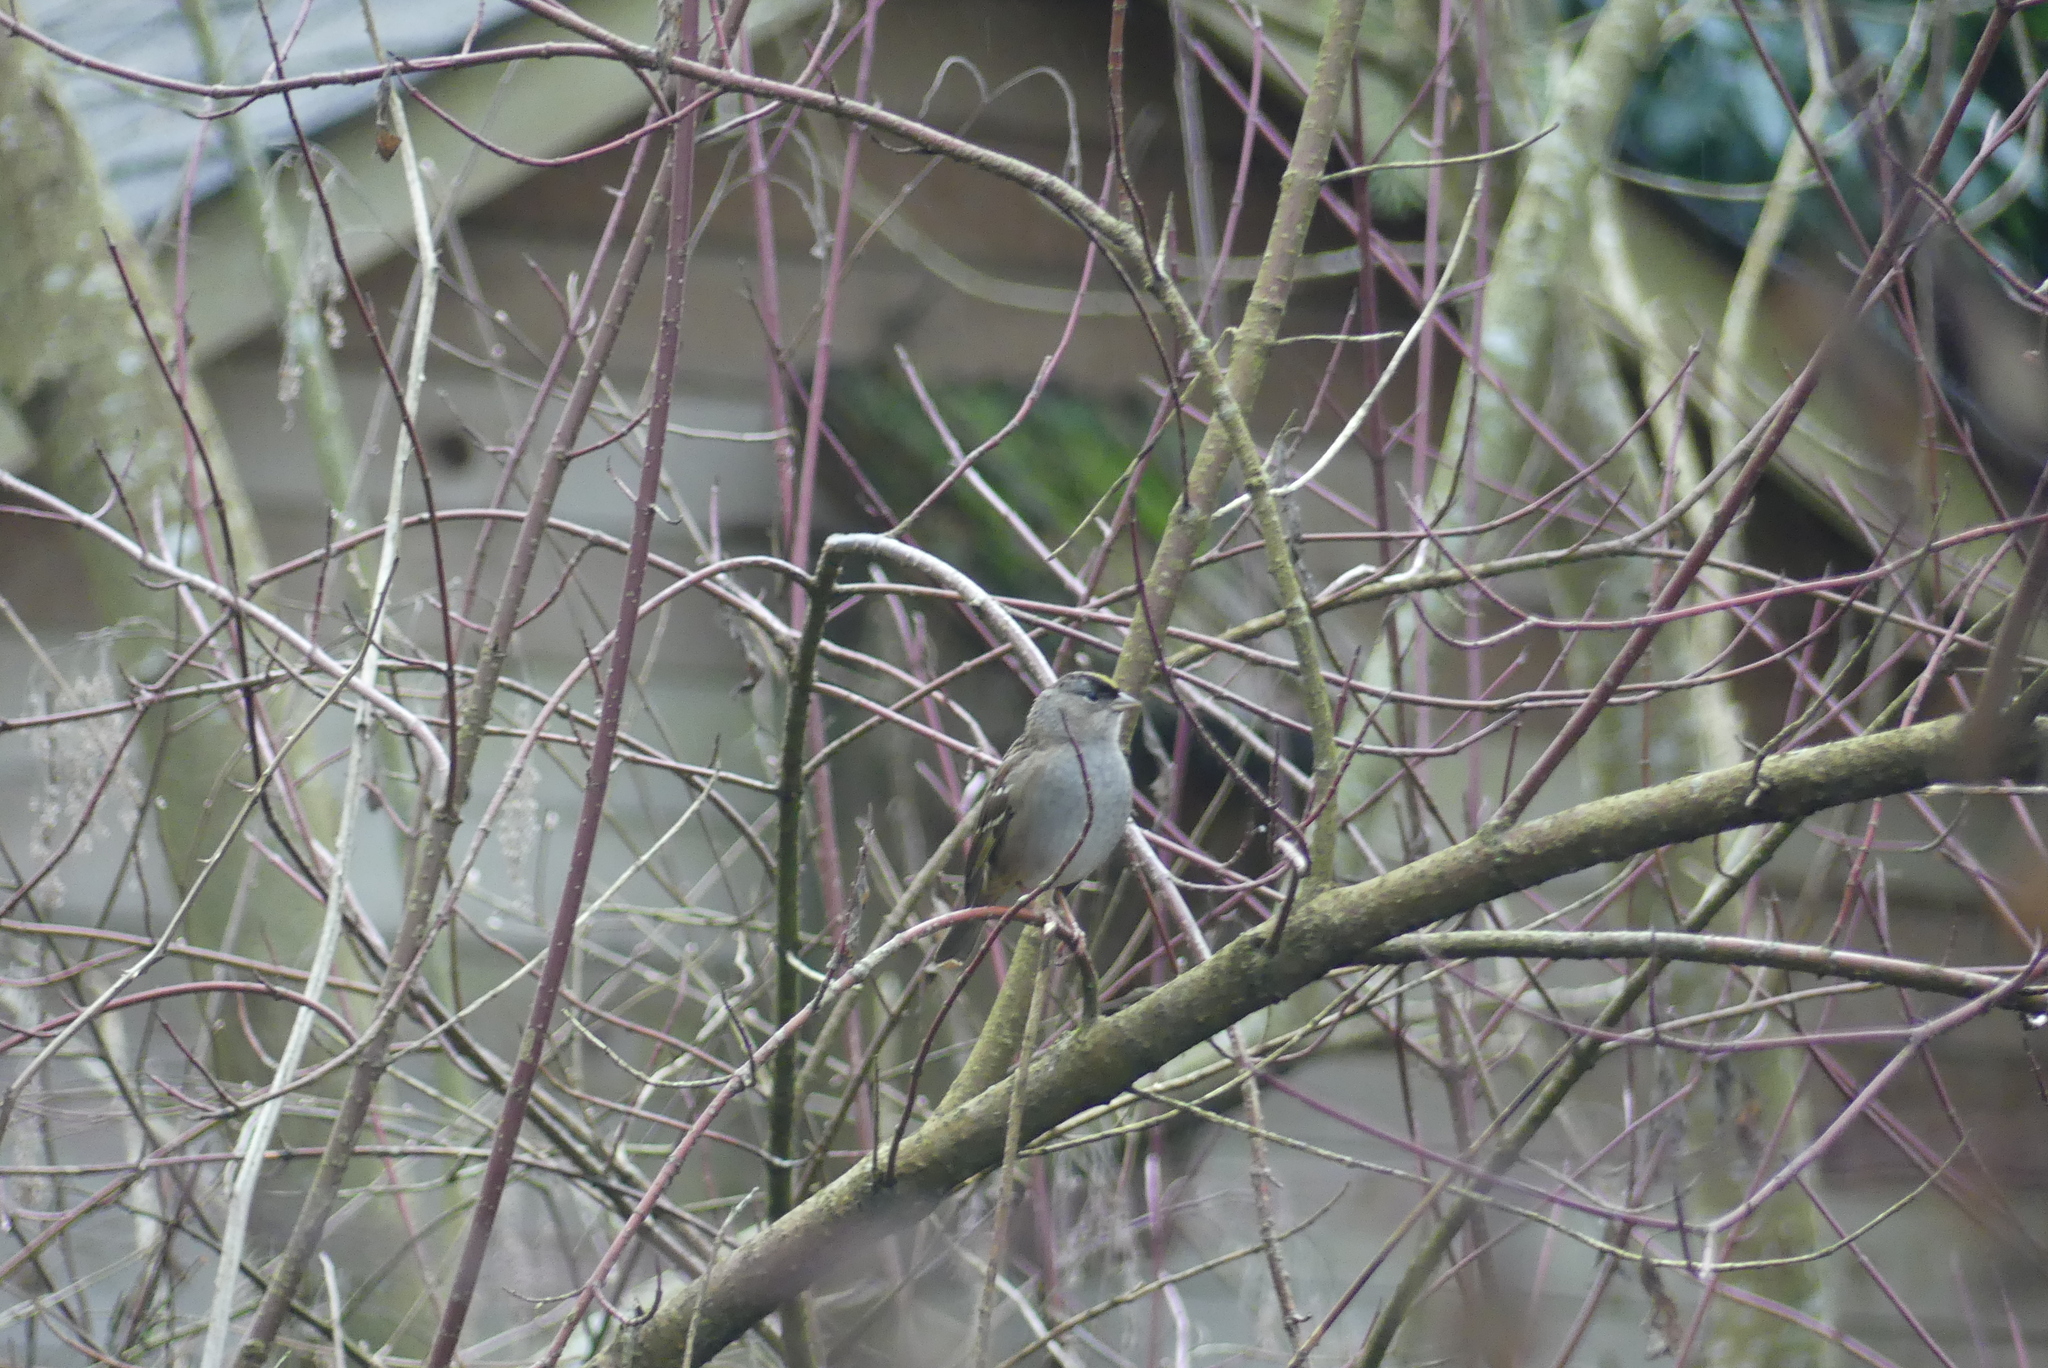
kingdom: Animalia
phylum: Chordata
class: Aves
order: Passeriformes
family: Passerellidae
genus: Zonotrichia
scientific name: Zonotrichia atricapilla
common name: Golden-crowned sparrow
